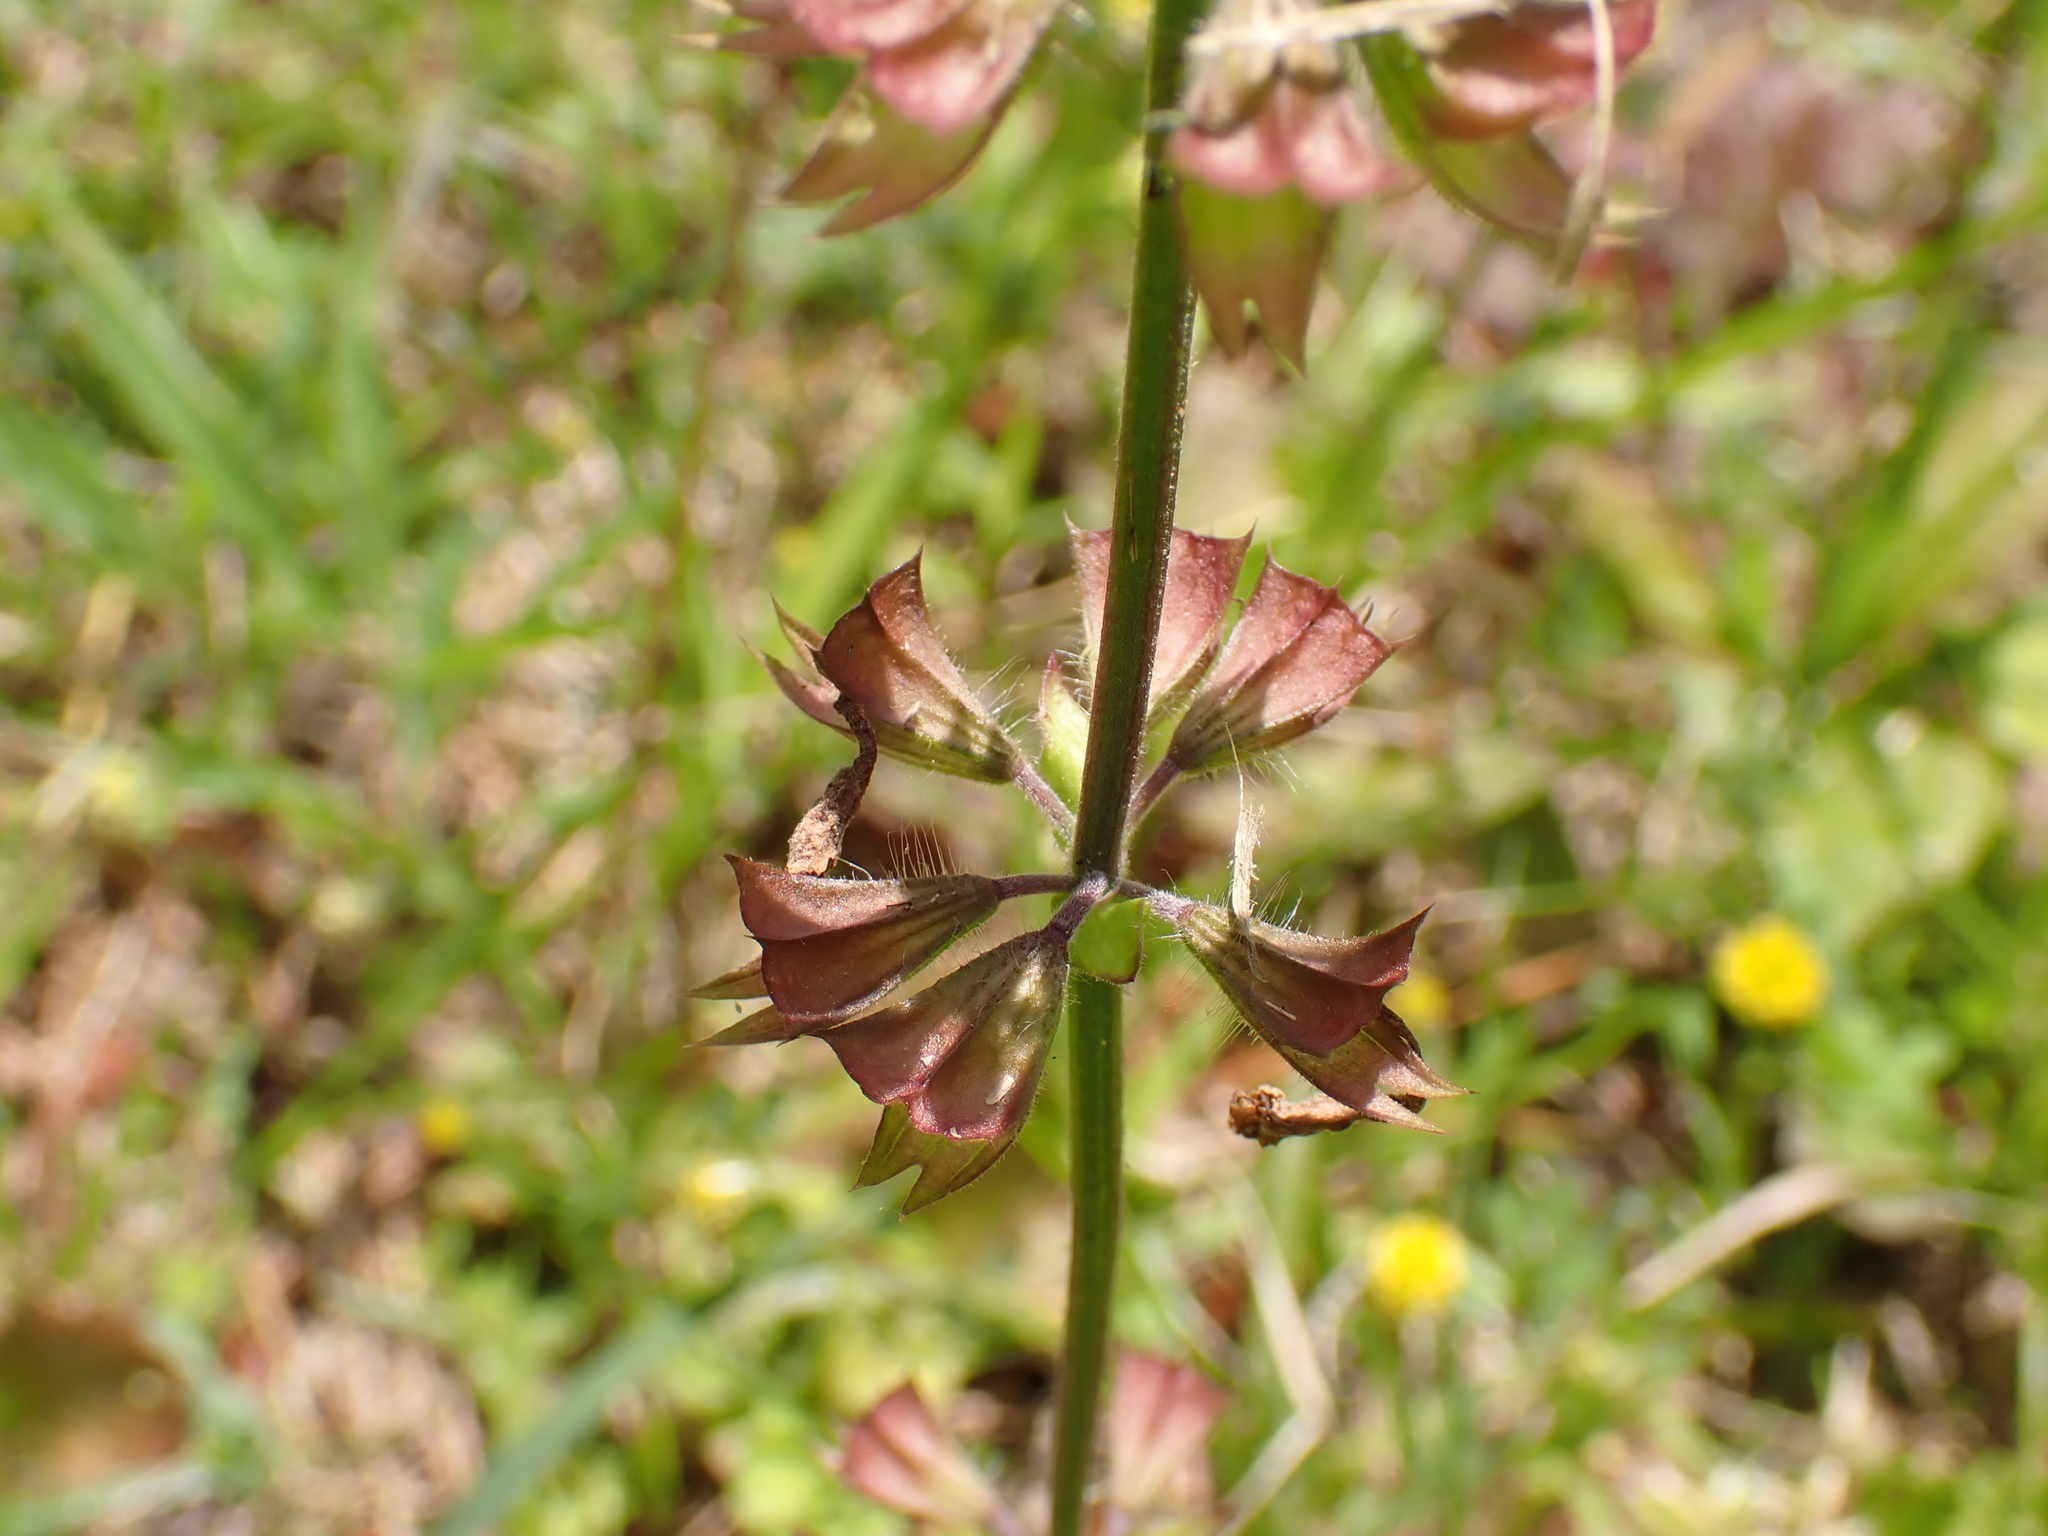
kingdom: Plantae
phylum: Tracheophyta
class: Magnoliopsida
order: Lamiales
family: Lamiaceae
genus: Salvia
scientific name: Salvia lyrata
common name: Cancerweed
